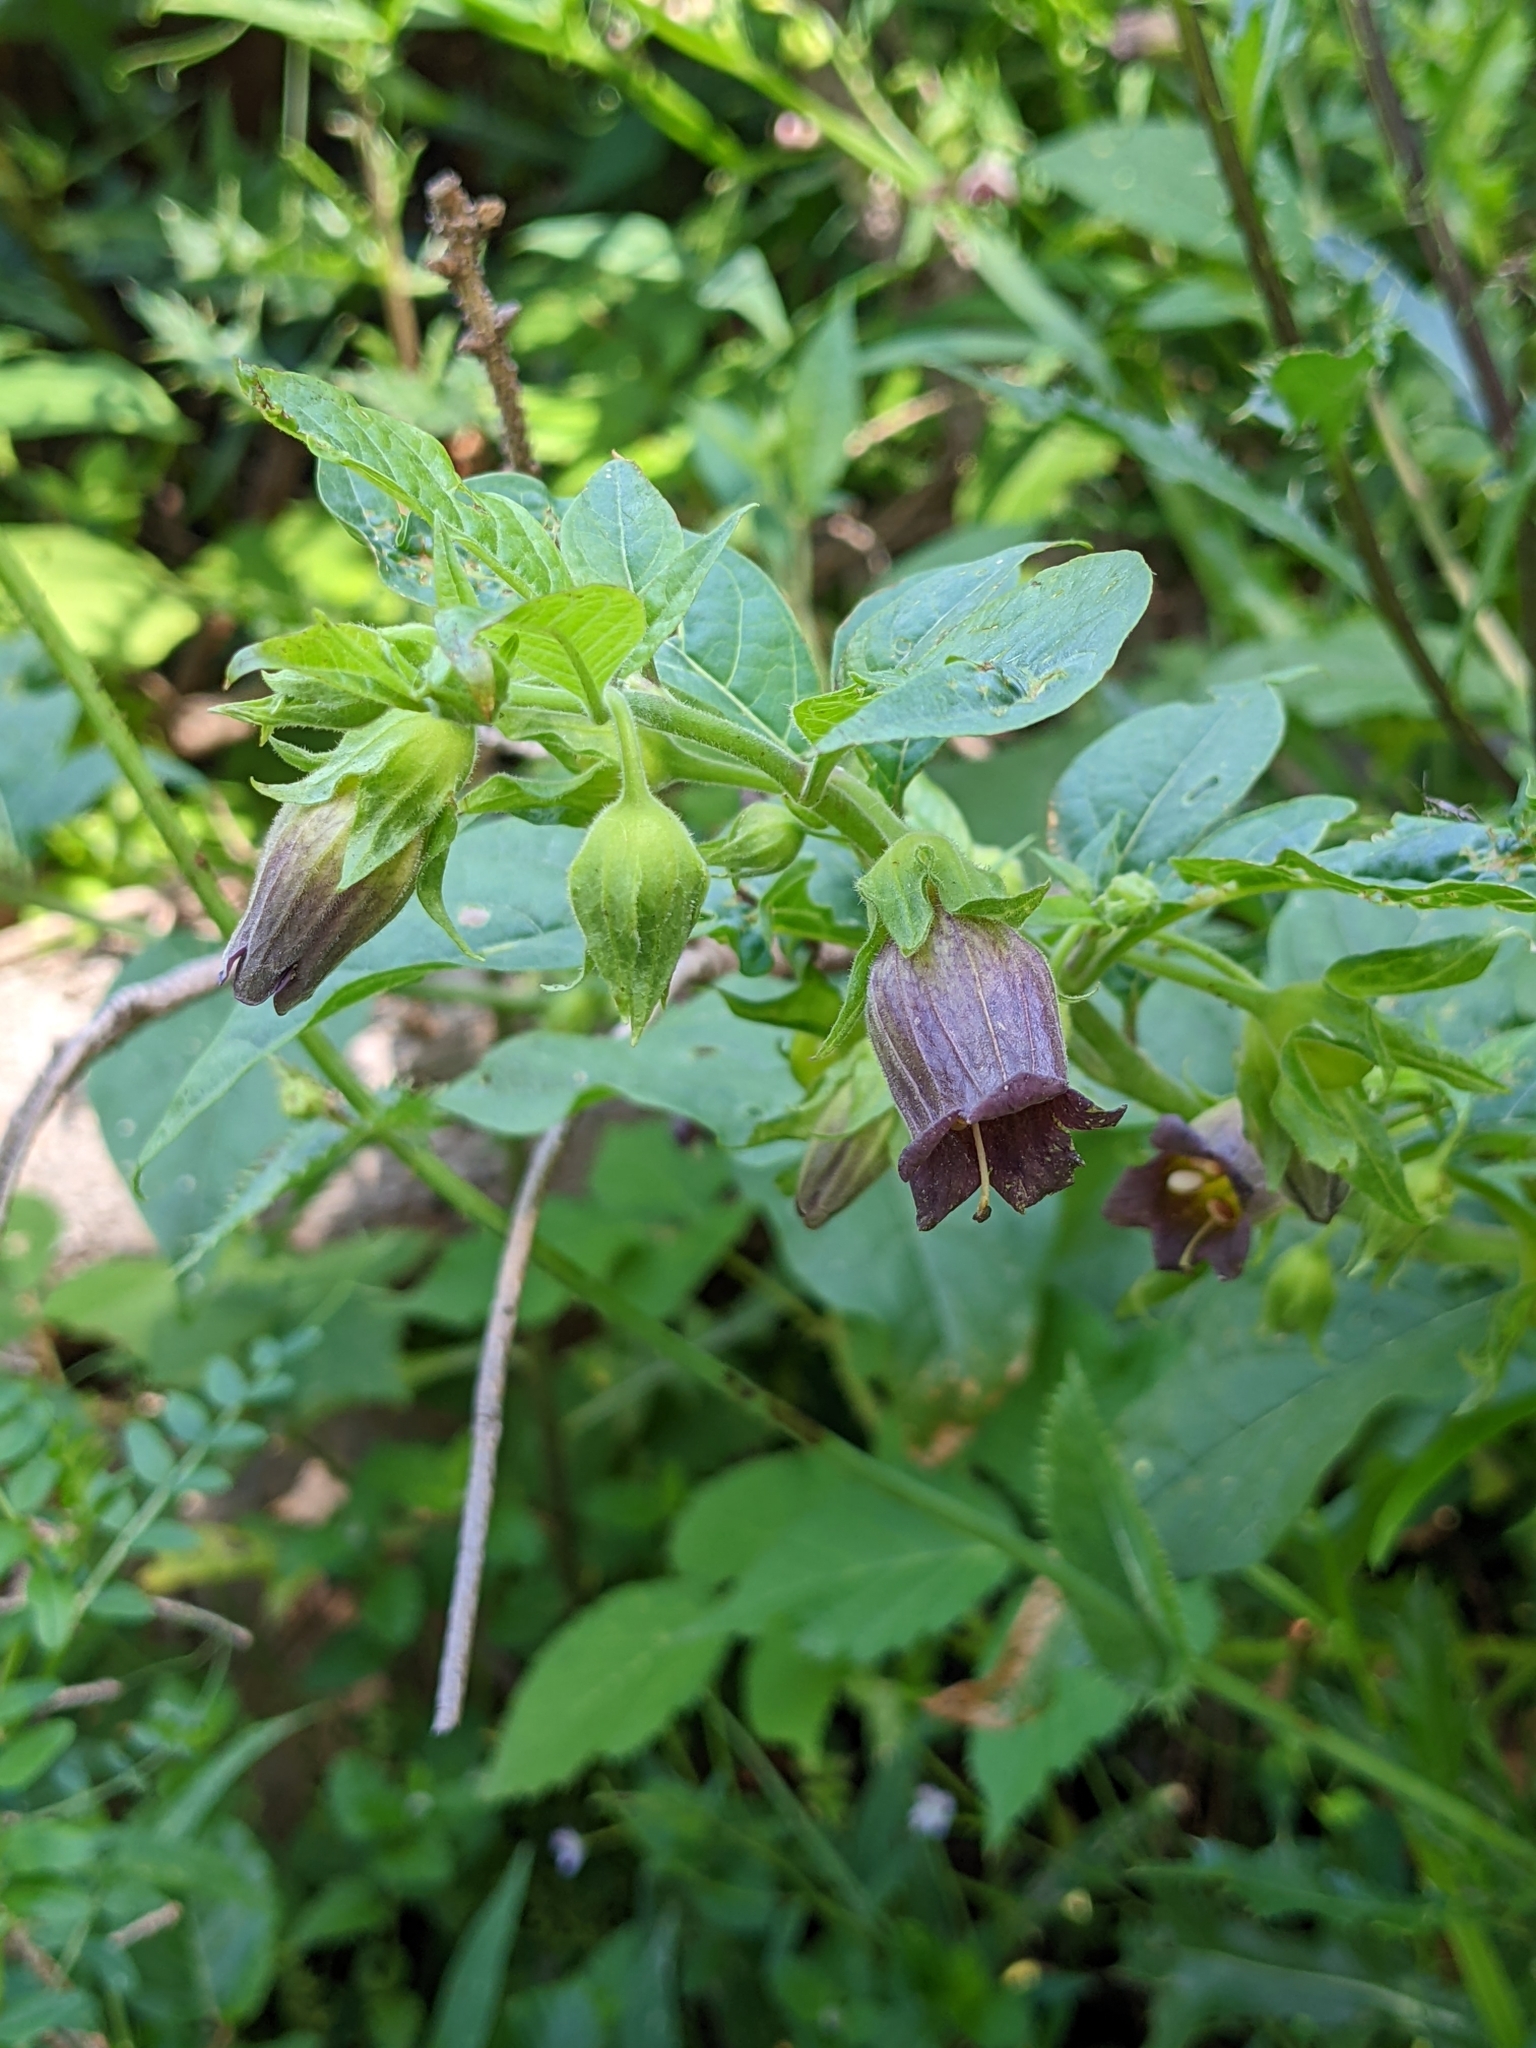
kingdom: Plantae
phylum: Tracheophyta
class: Magnoliopsida
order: Solanales
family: Solanaceae
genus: Atropa
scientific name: Atropa belladonna
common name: Deadly nightshade
